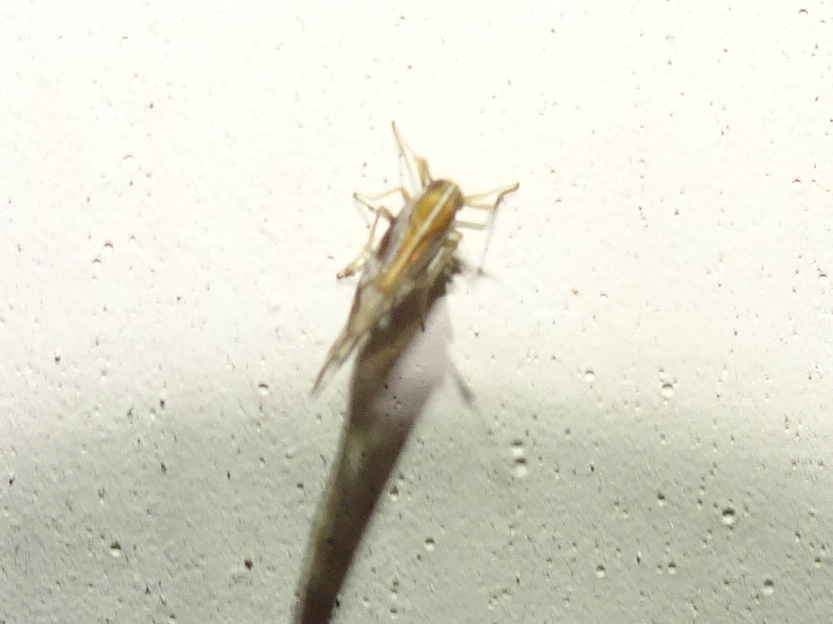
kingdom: Animalia
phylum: Arthropoda
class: Insecta
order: Hemiptera
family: Delphacidae
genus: Liburniella
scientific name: Liburniella ornata
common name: Ornate planthopper
